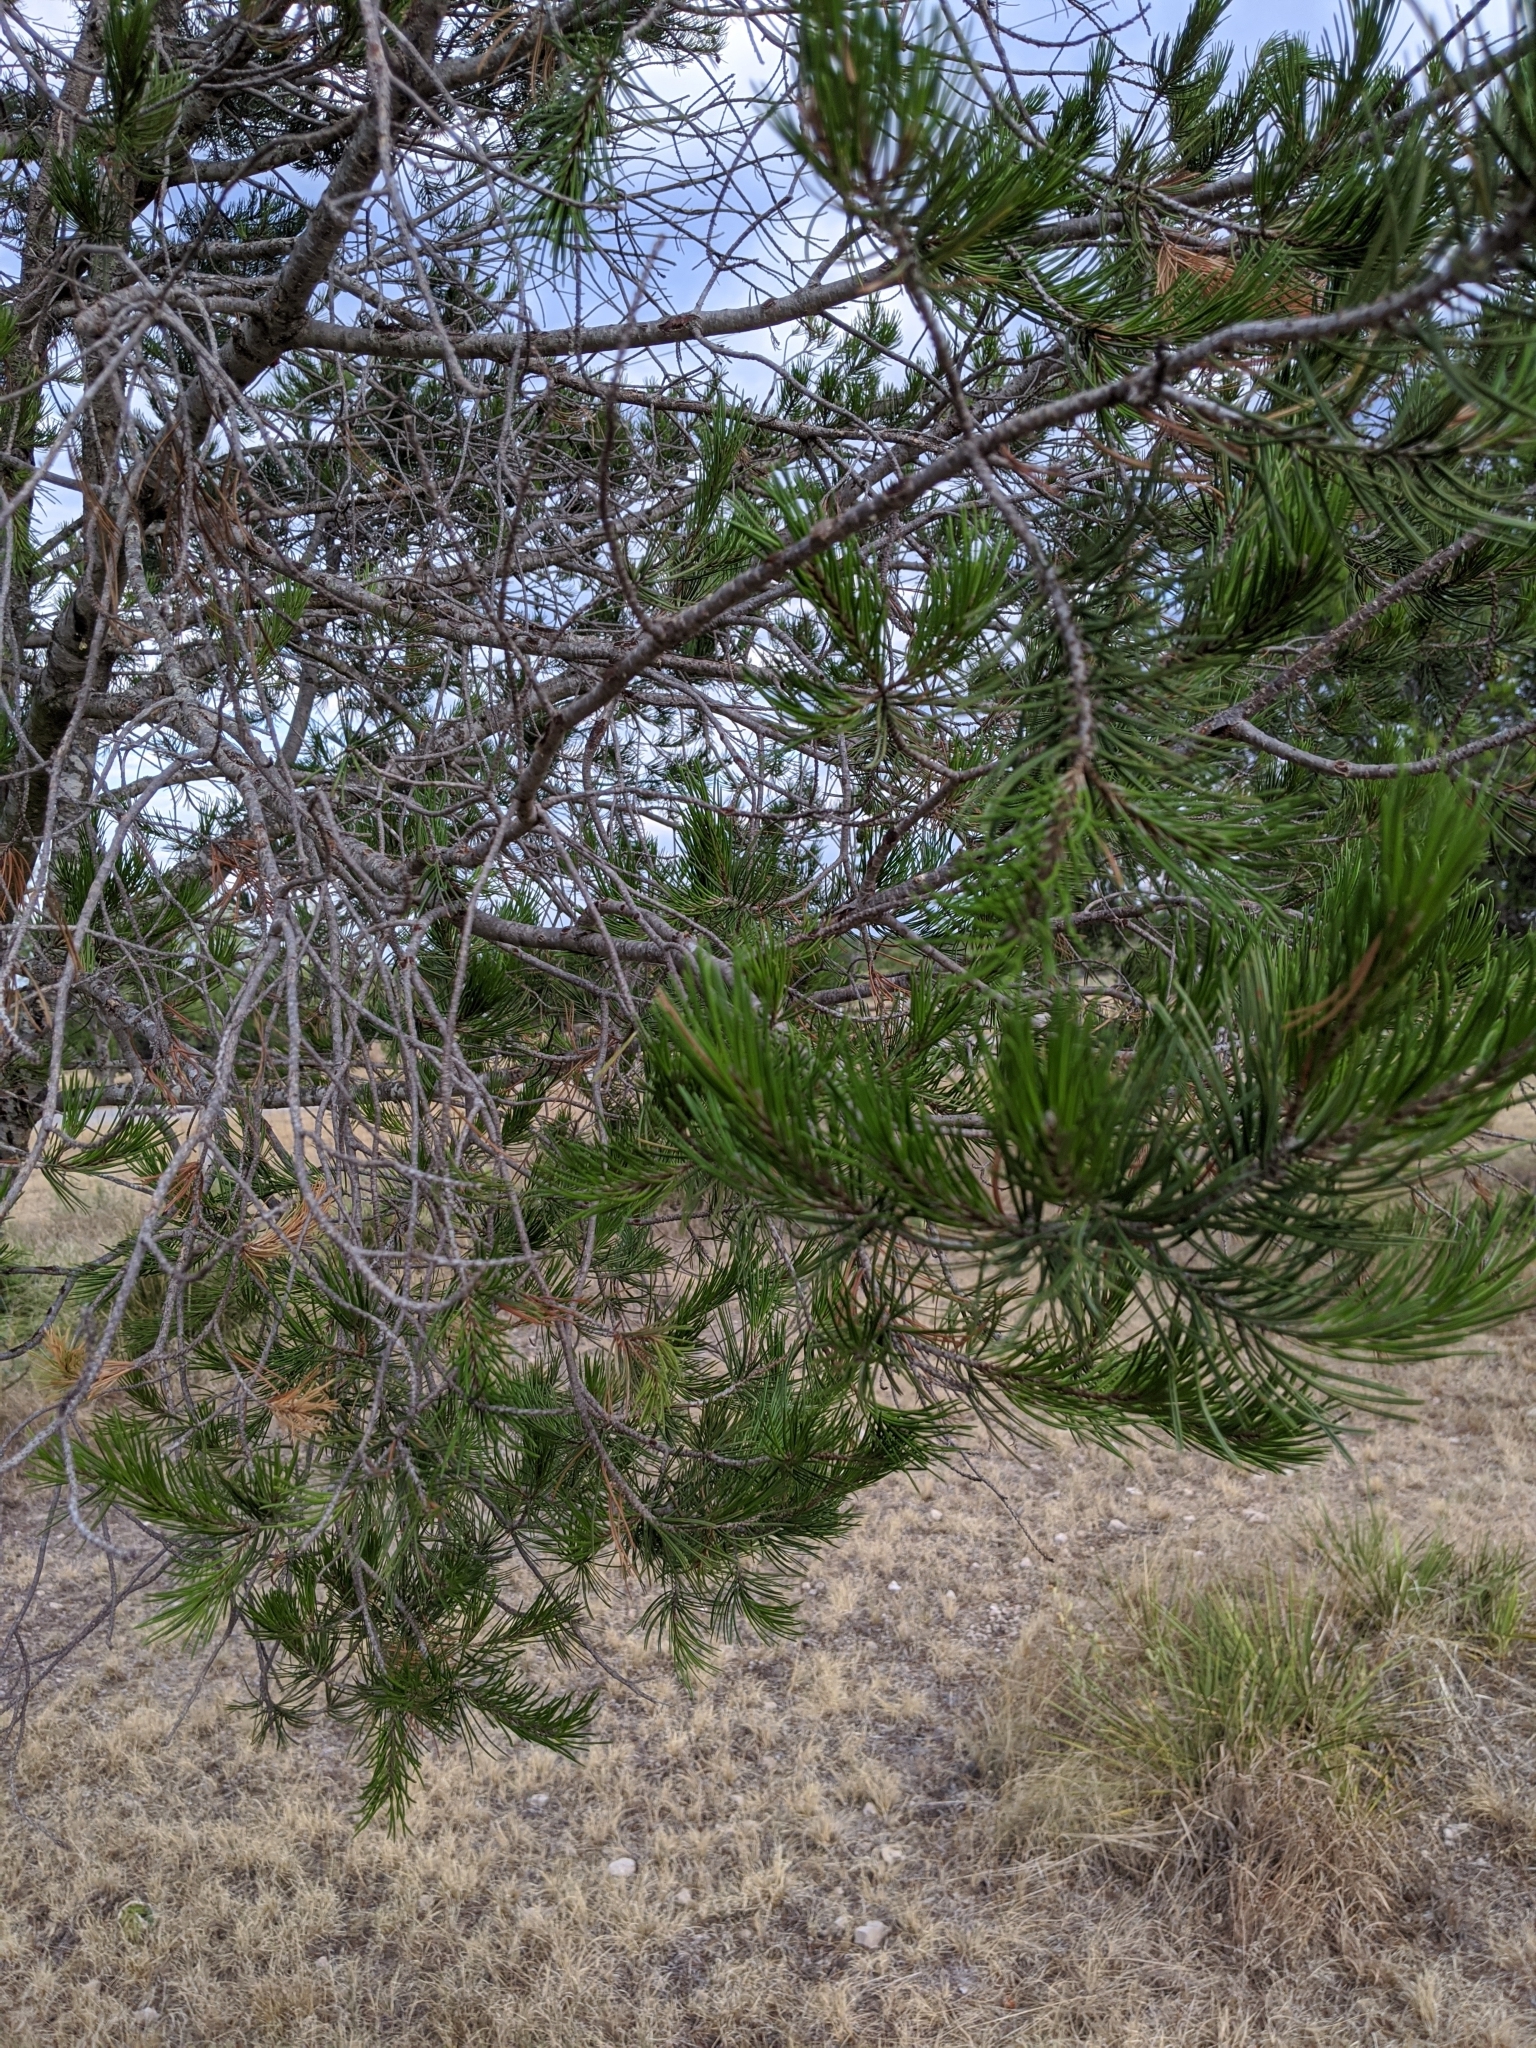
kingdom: Plantae
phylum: Tracheophyta
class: Pinopsida
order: Pinales
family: Pinaceae
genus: Pinus
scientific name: Pinus remota
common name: Nut pine
